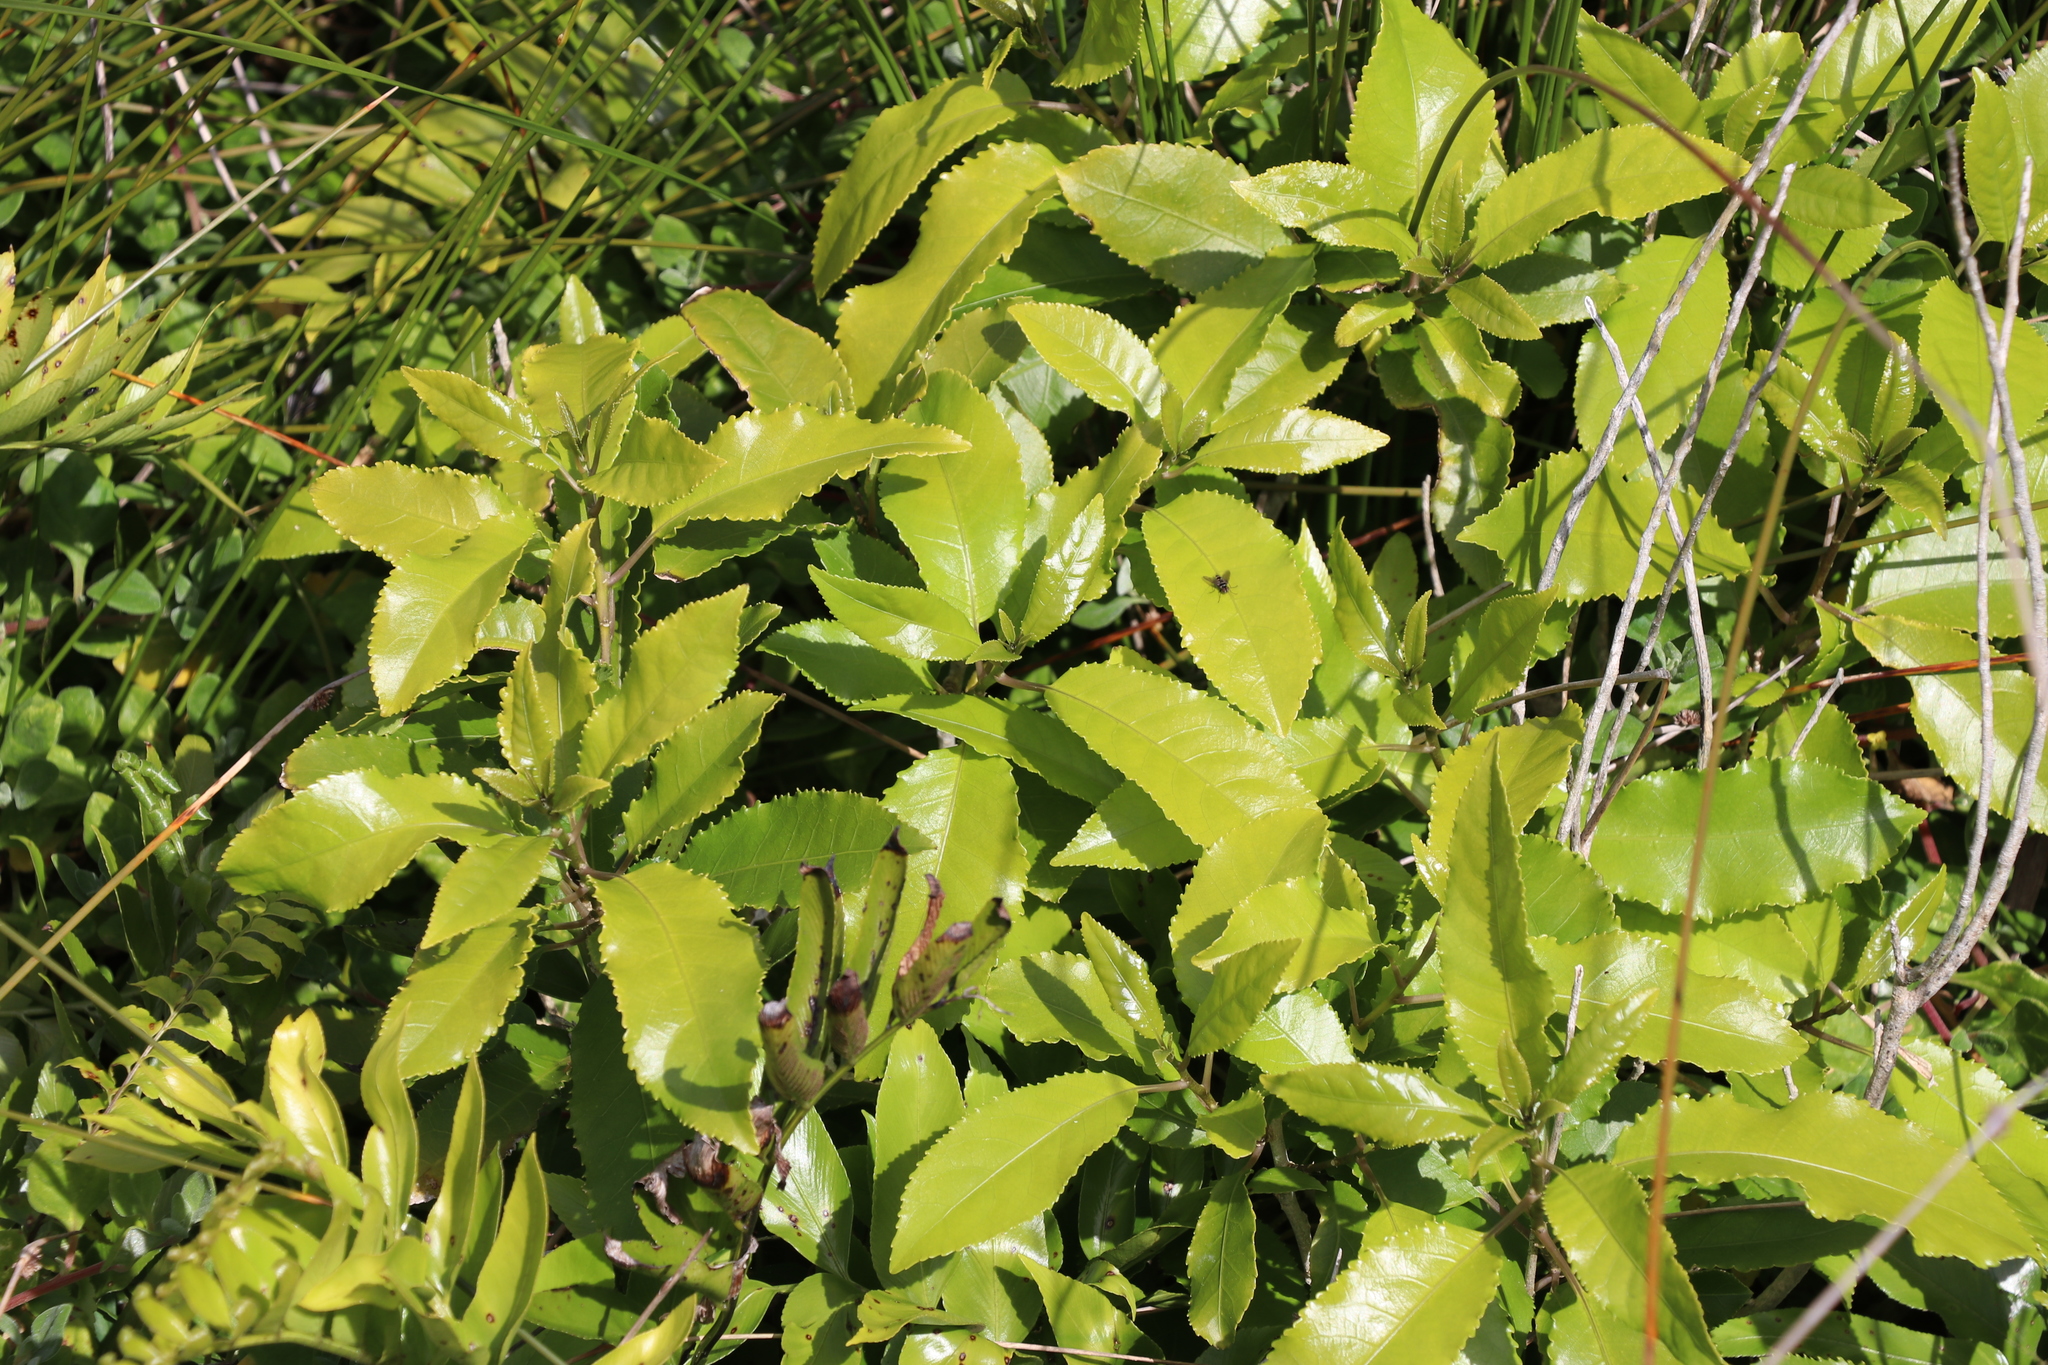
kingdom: Plantae
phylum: Tracheophyta
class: Magnoliopsida
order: Malpighiales
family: Violaceae
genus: Melicytus
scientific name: Melicytus ramiflorus
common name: Mahoe
